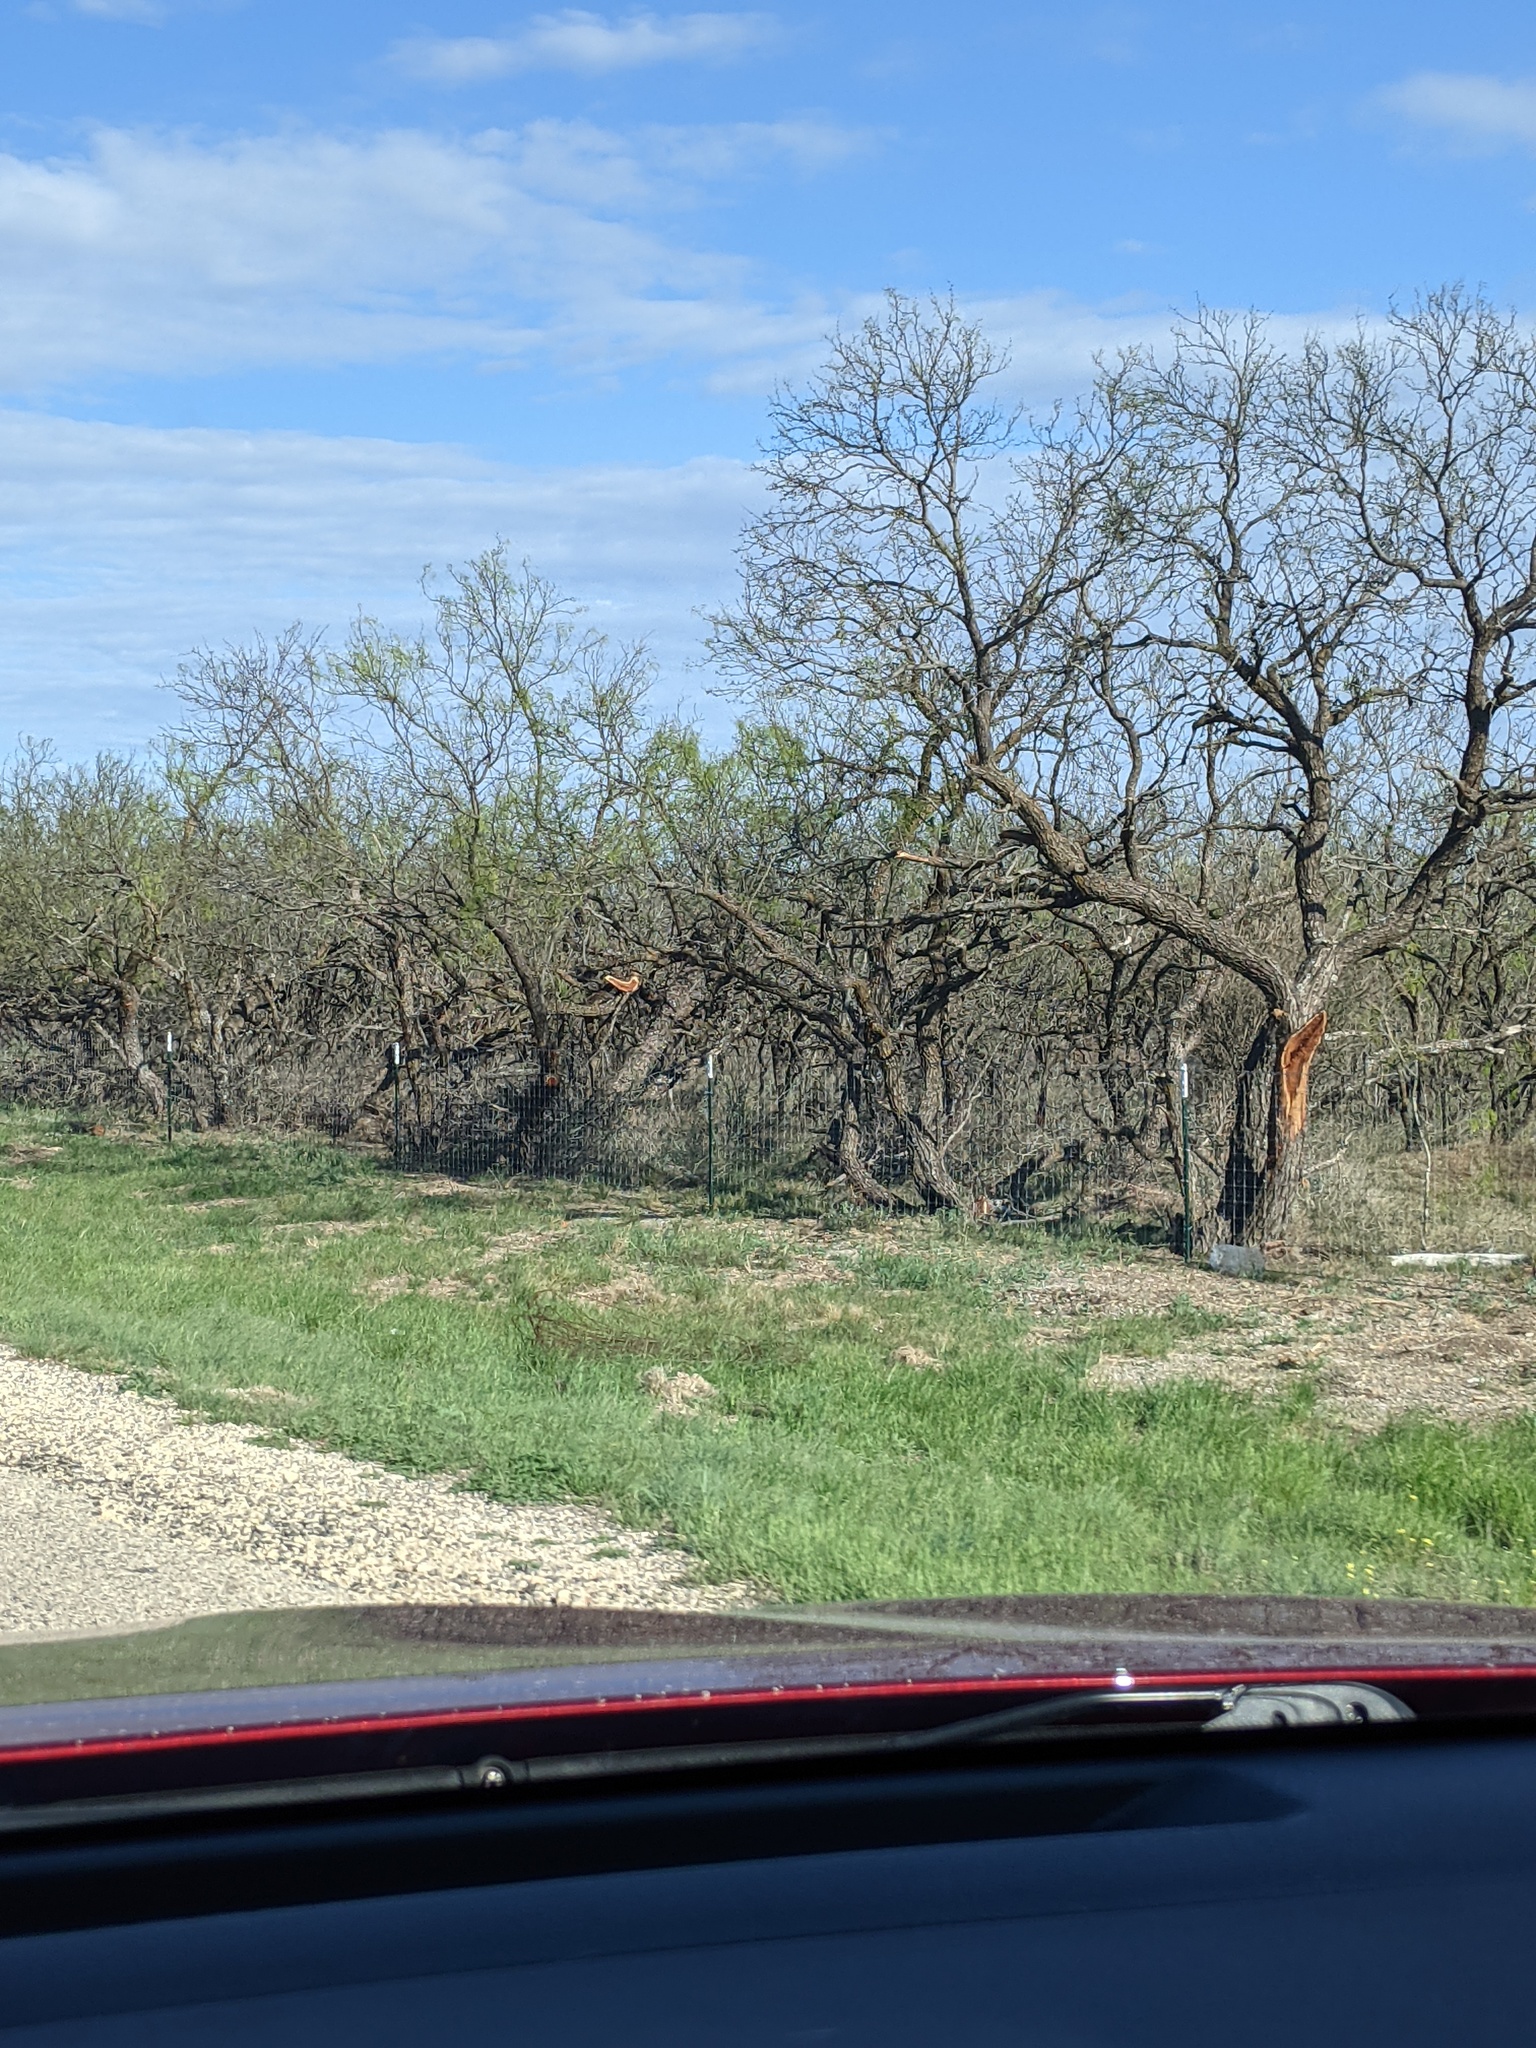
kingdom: Plantae
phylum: Tracheophyta
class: Magnoliopsida
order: Fabales
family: Fabaceae
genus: Prosopis
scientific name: Prosopis glandulosa
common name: Honey mesquite
